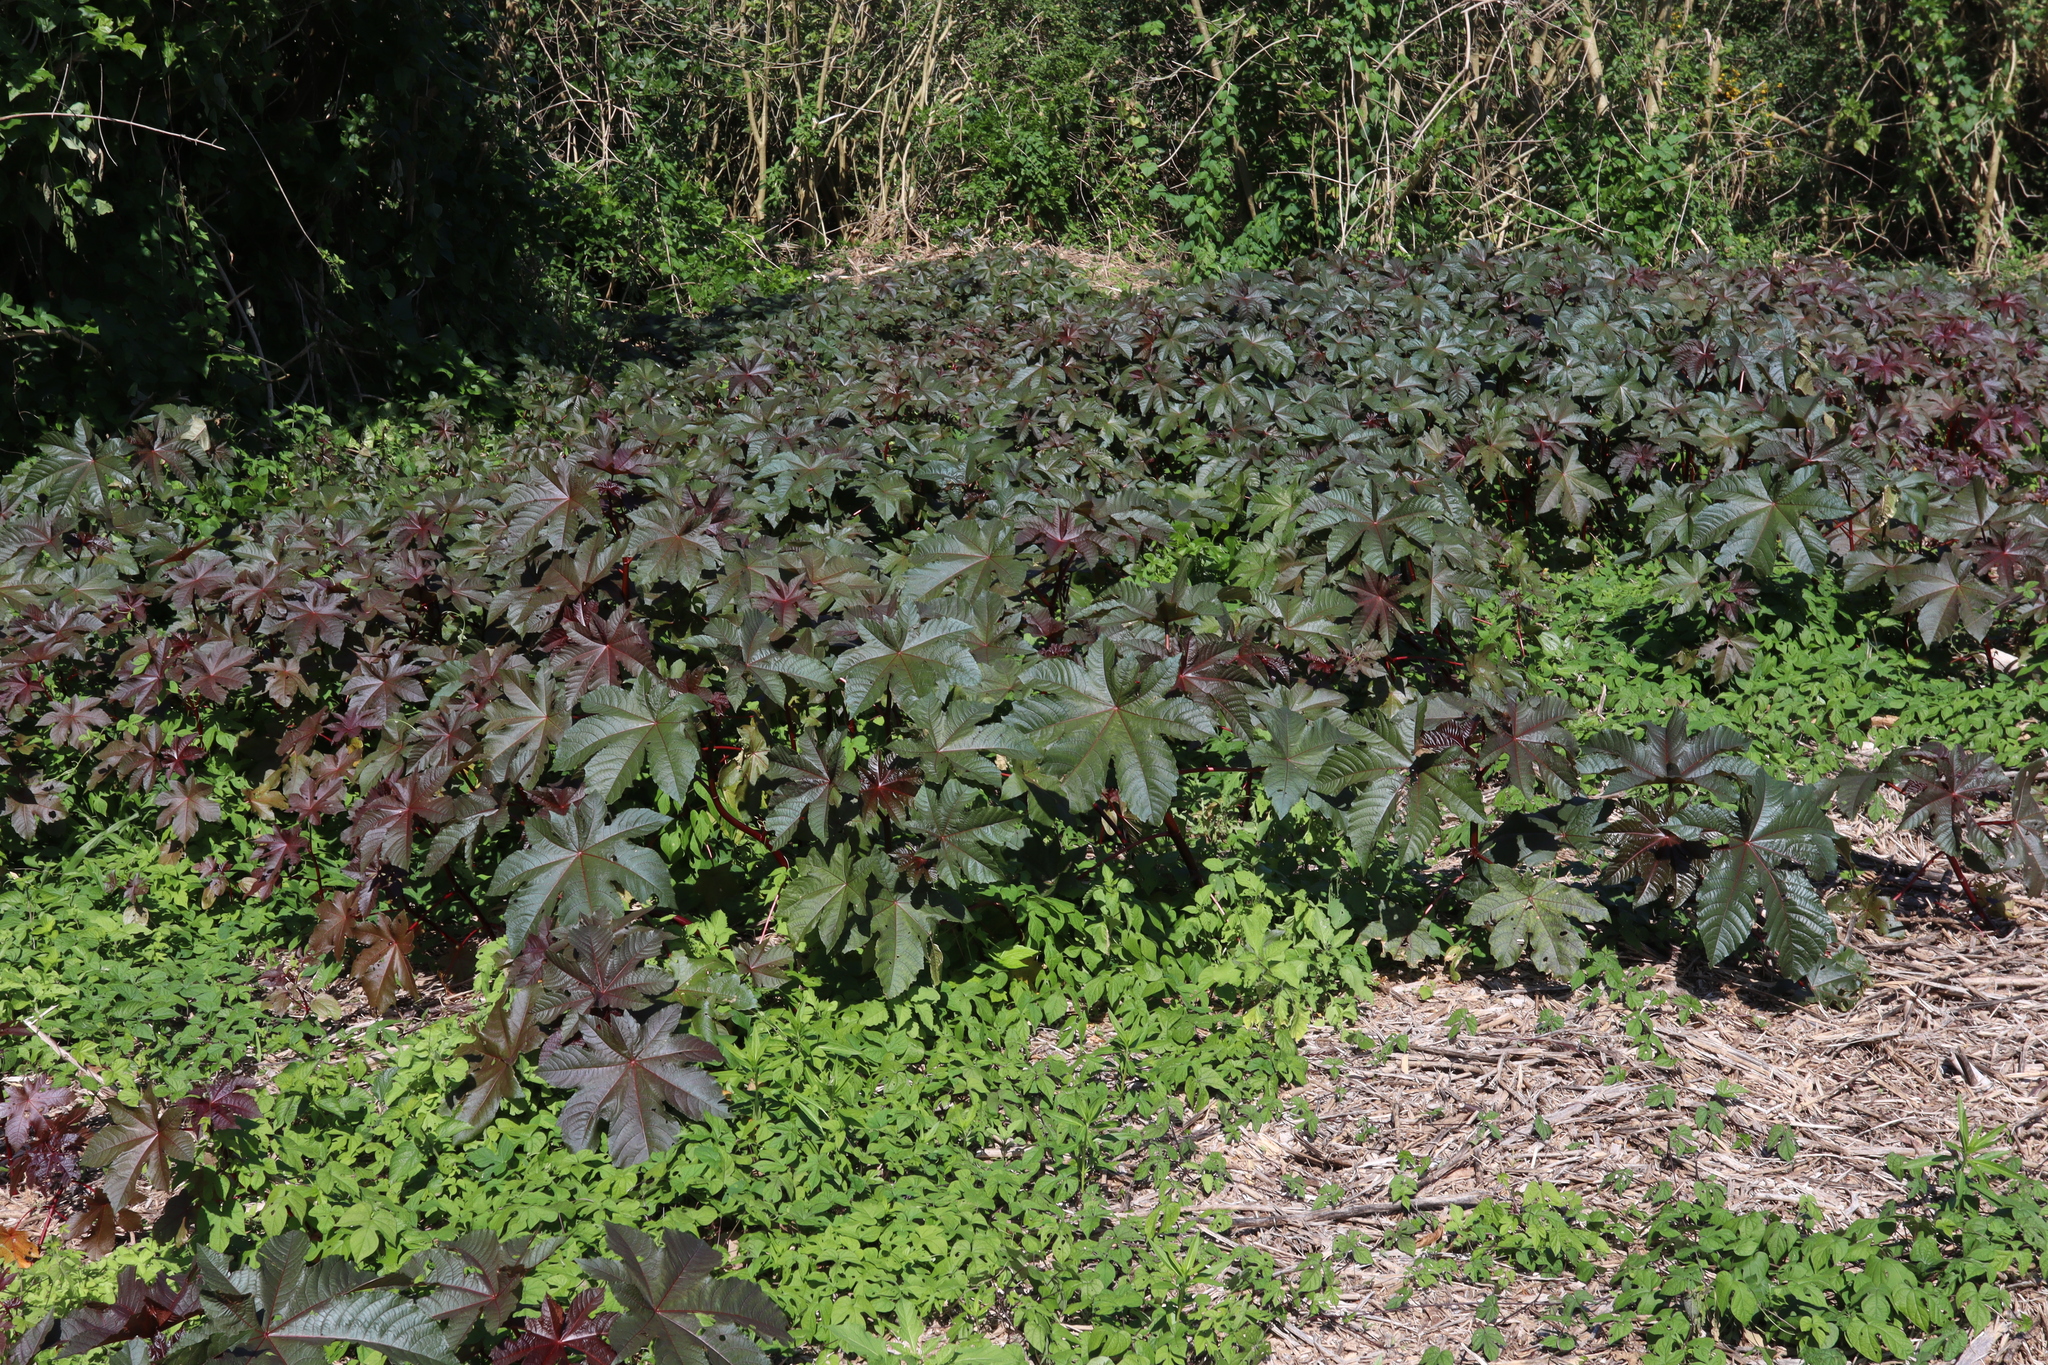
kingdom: Plantae
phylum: Tracheophyta
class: Magnoliopsida
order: Malpighiales
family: Euphorbiaceae
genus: Ricinus
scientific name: Ricinus communis
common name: Castor-oil-plant
